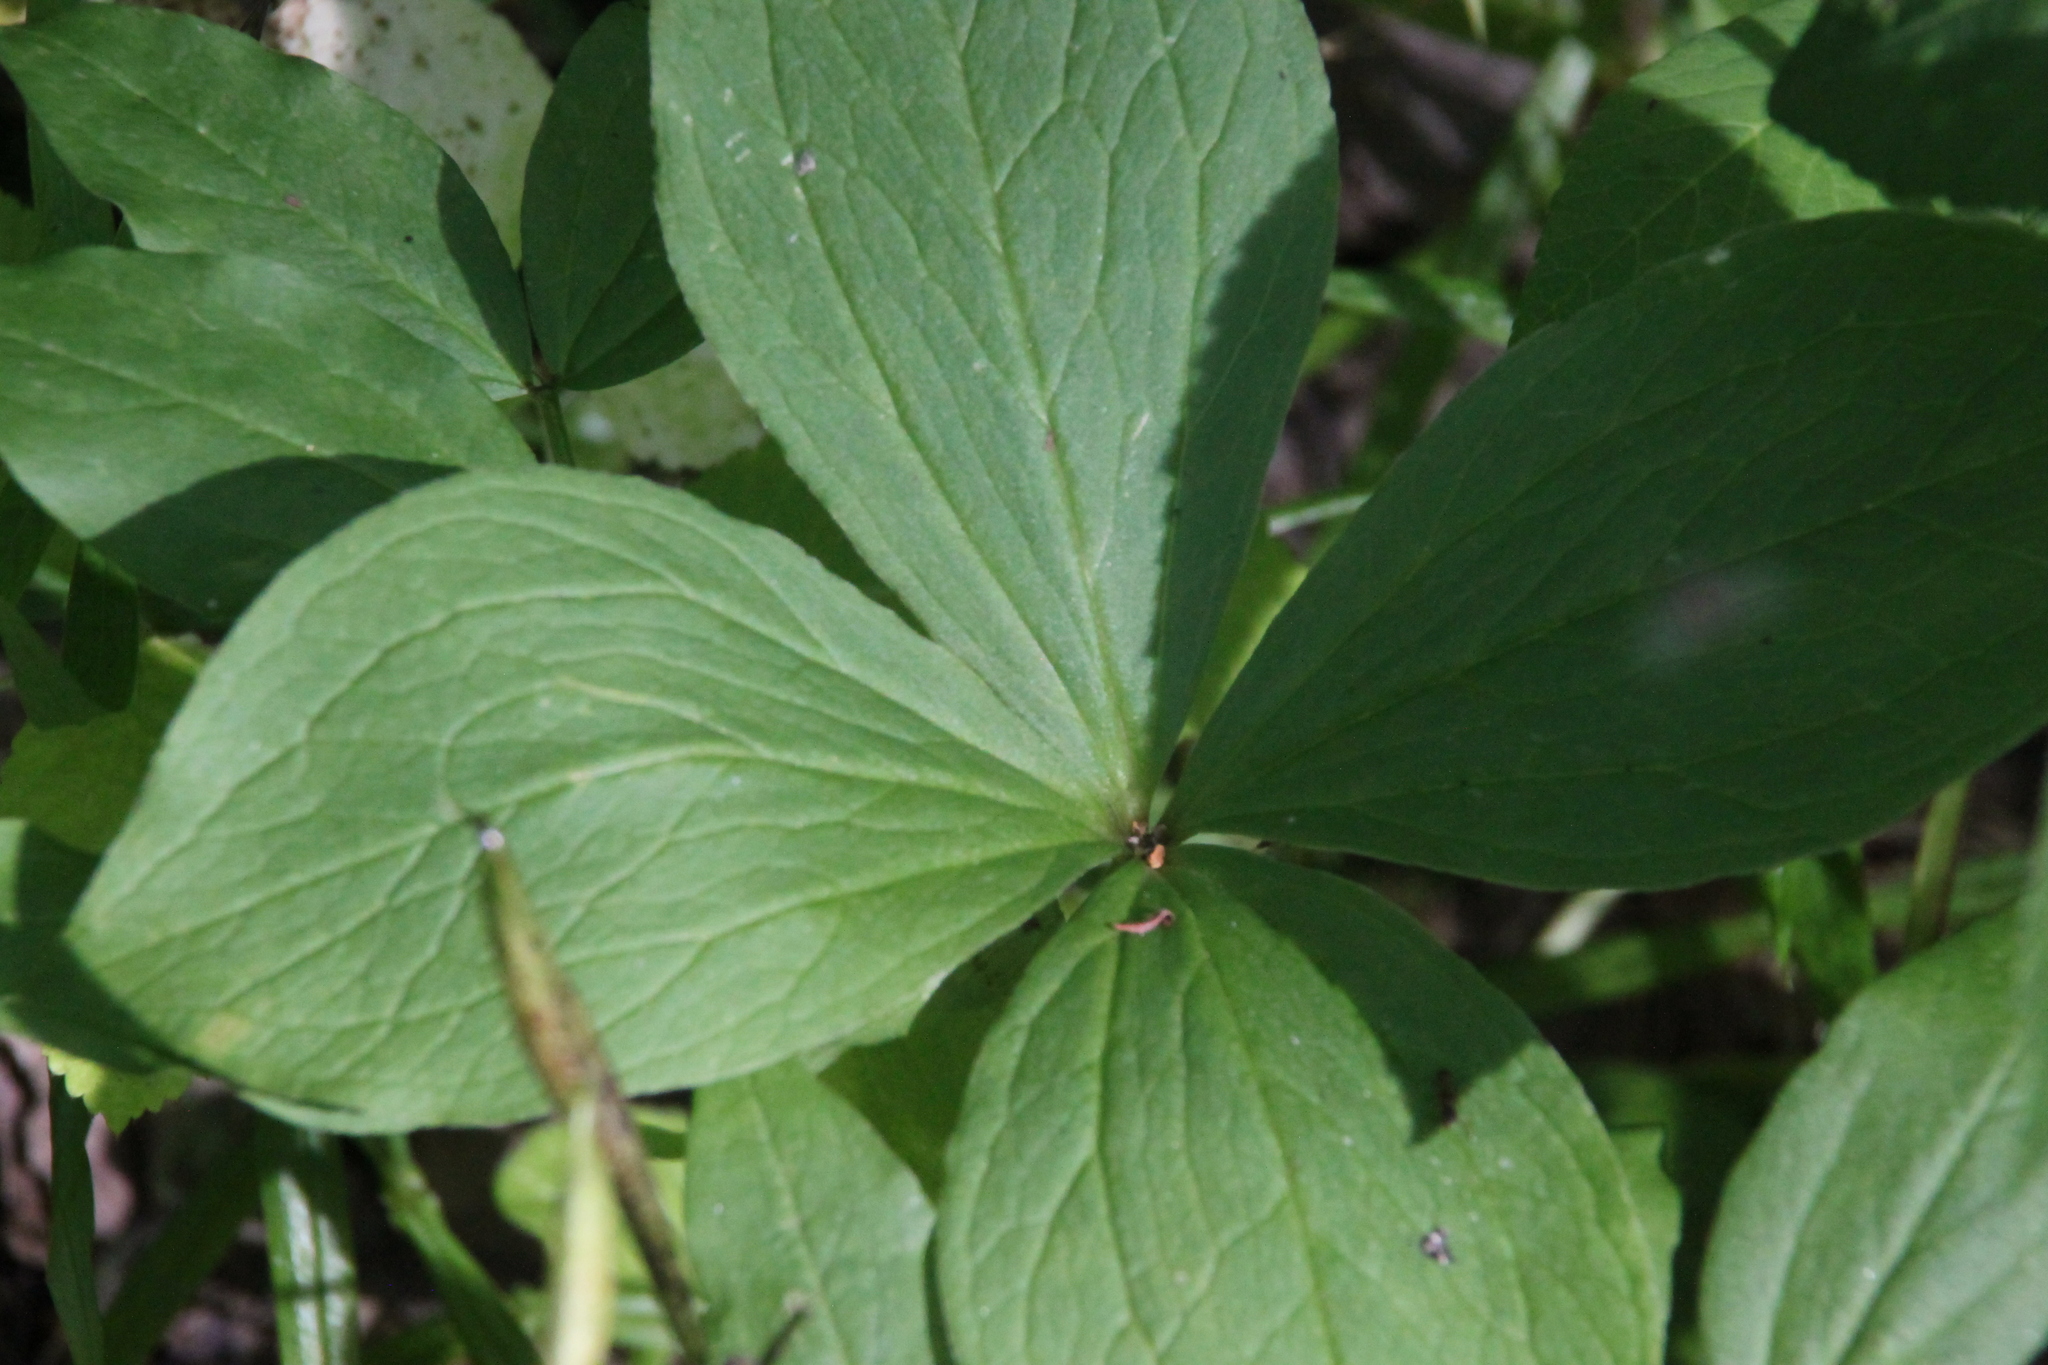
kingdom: Plantae
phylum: Tracheophyta
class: Liliopsida
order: Liliales
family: Melanthiaceae
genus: Paris
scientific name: Paris quadrifolia
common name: Herb-paris
